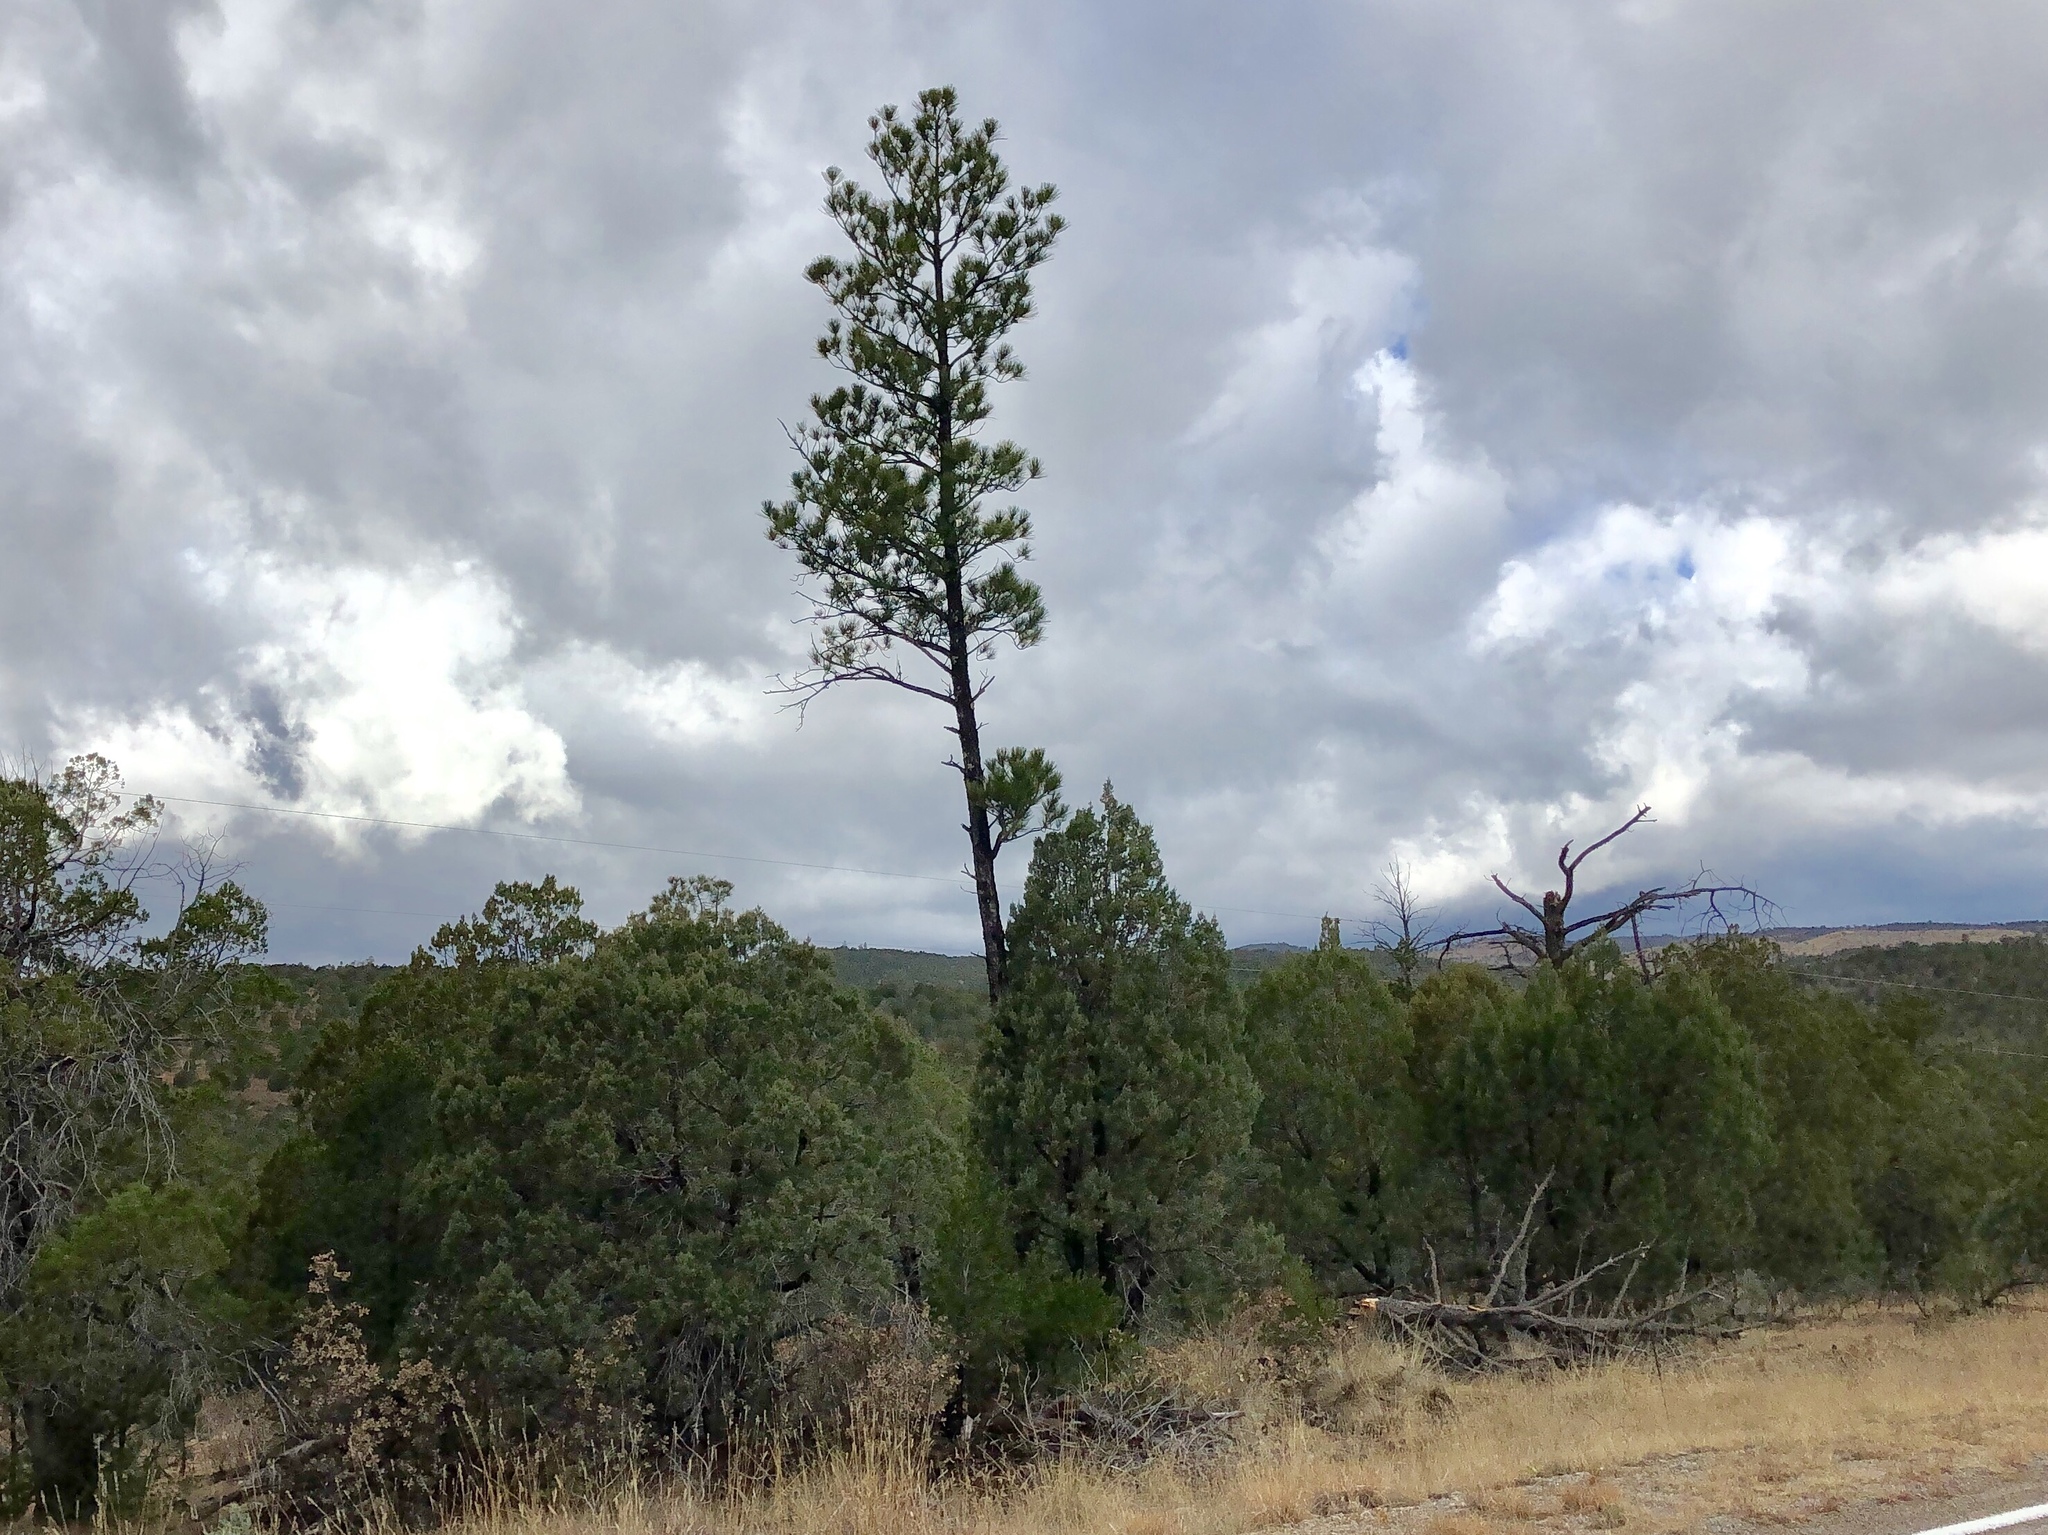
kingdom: Plantae
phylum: Tracheophyta
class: Pinopsida
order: Pinales
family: Pinaceae
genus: Pinus
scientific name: Pinus ponderosa
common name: Western yellow-pine
